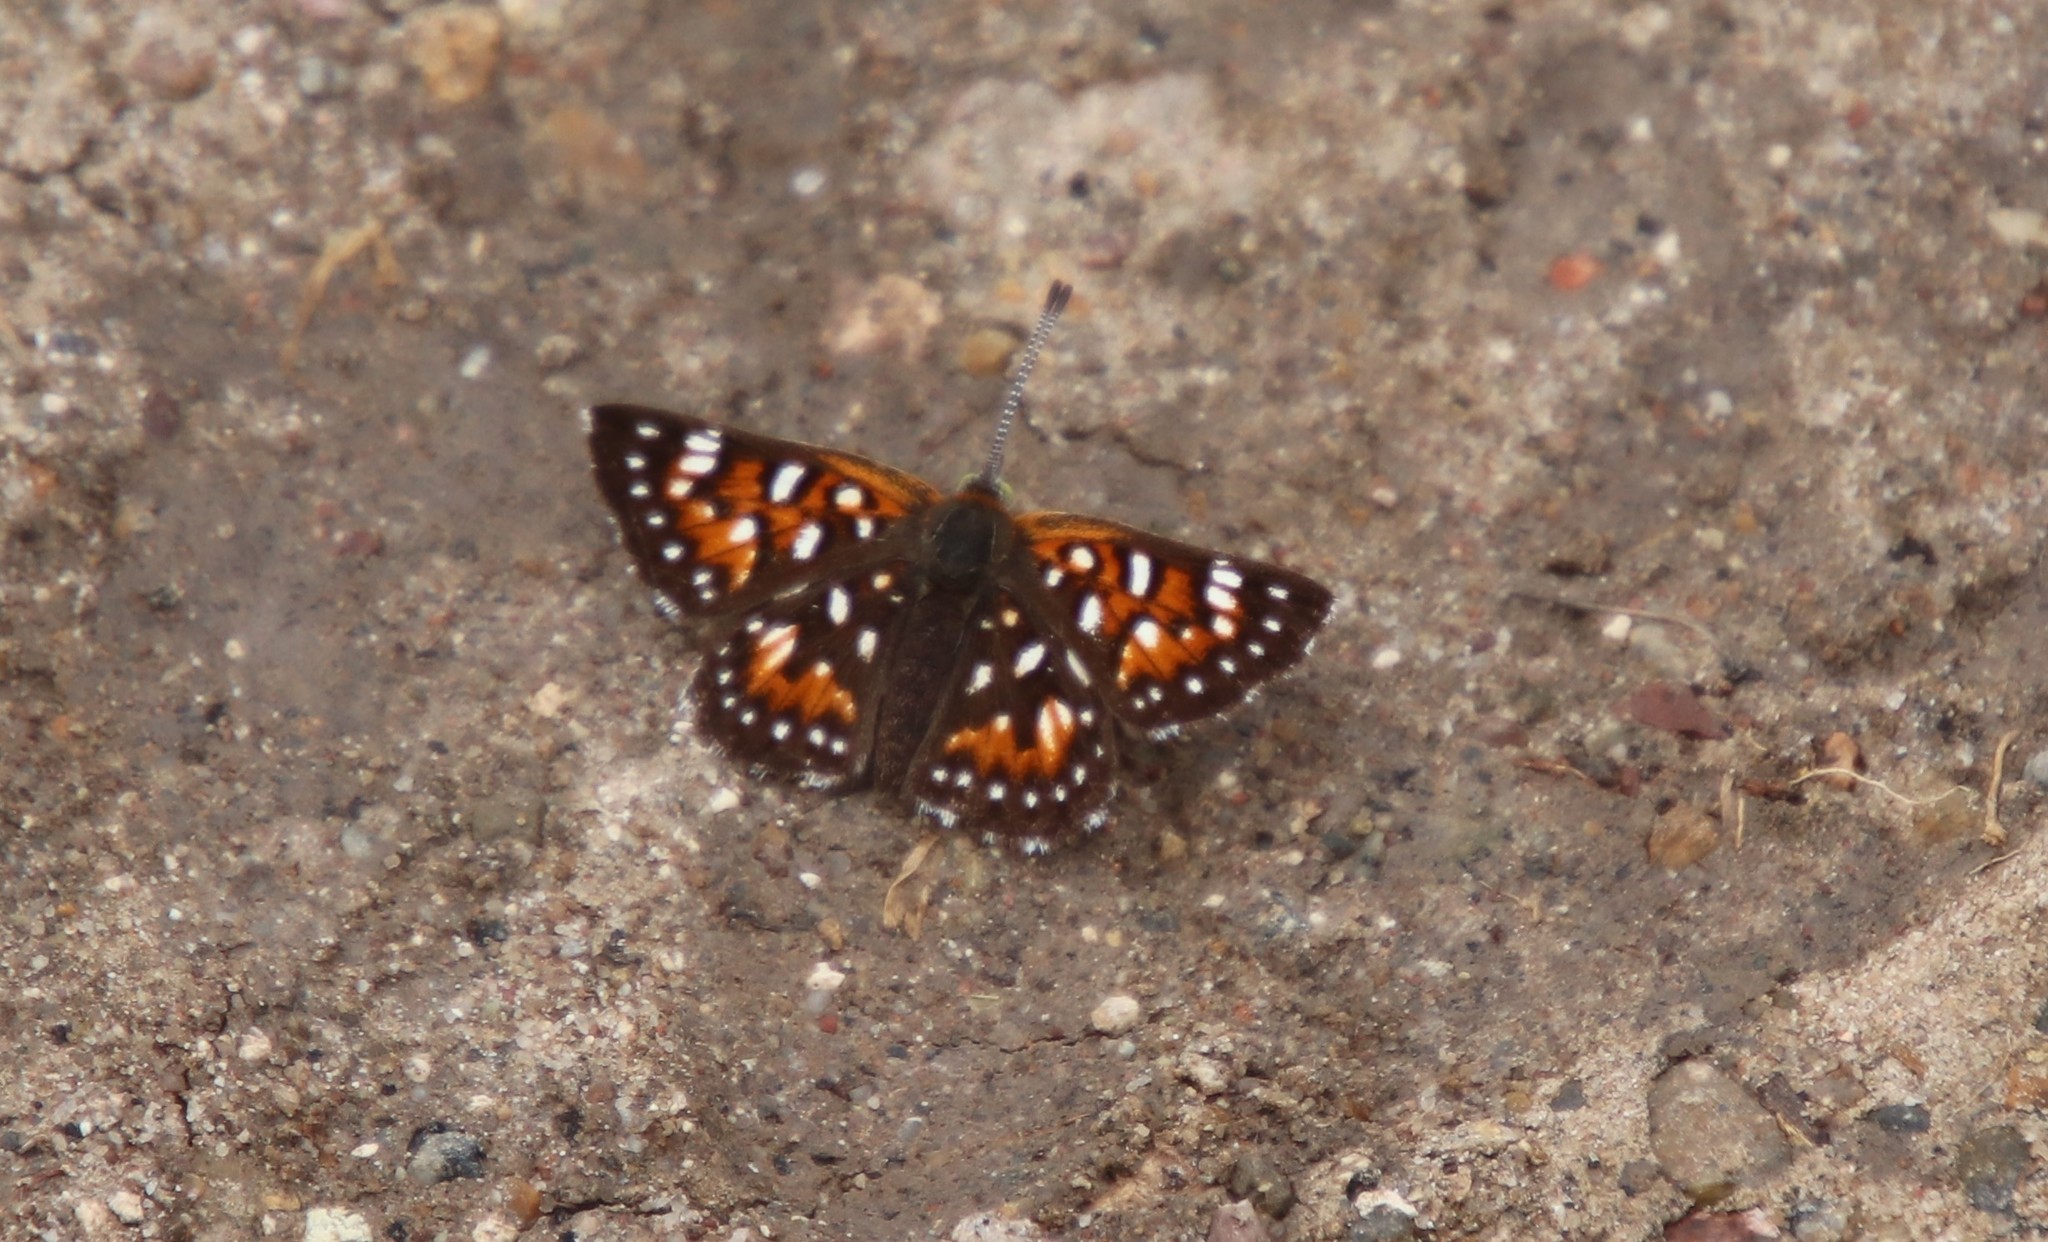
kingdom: Animalia
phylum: Arthropoda
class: Insecta
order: Lepidoptera
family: Riodinidae
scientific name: Riodinidae
